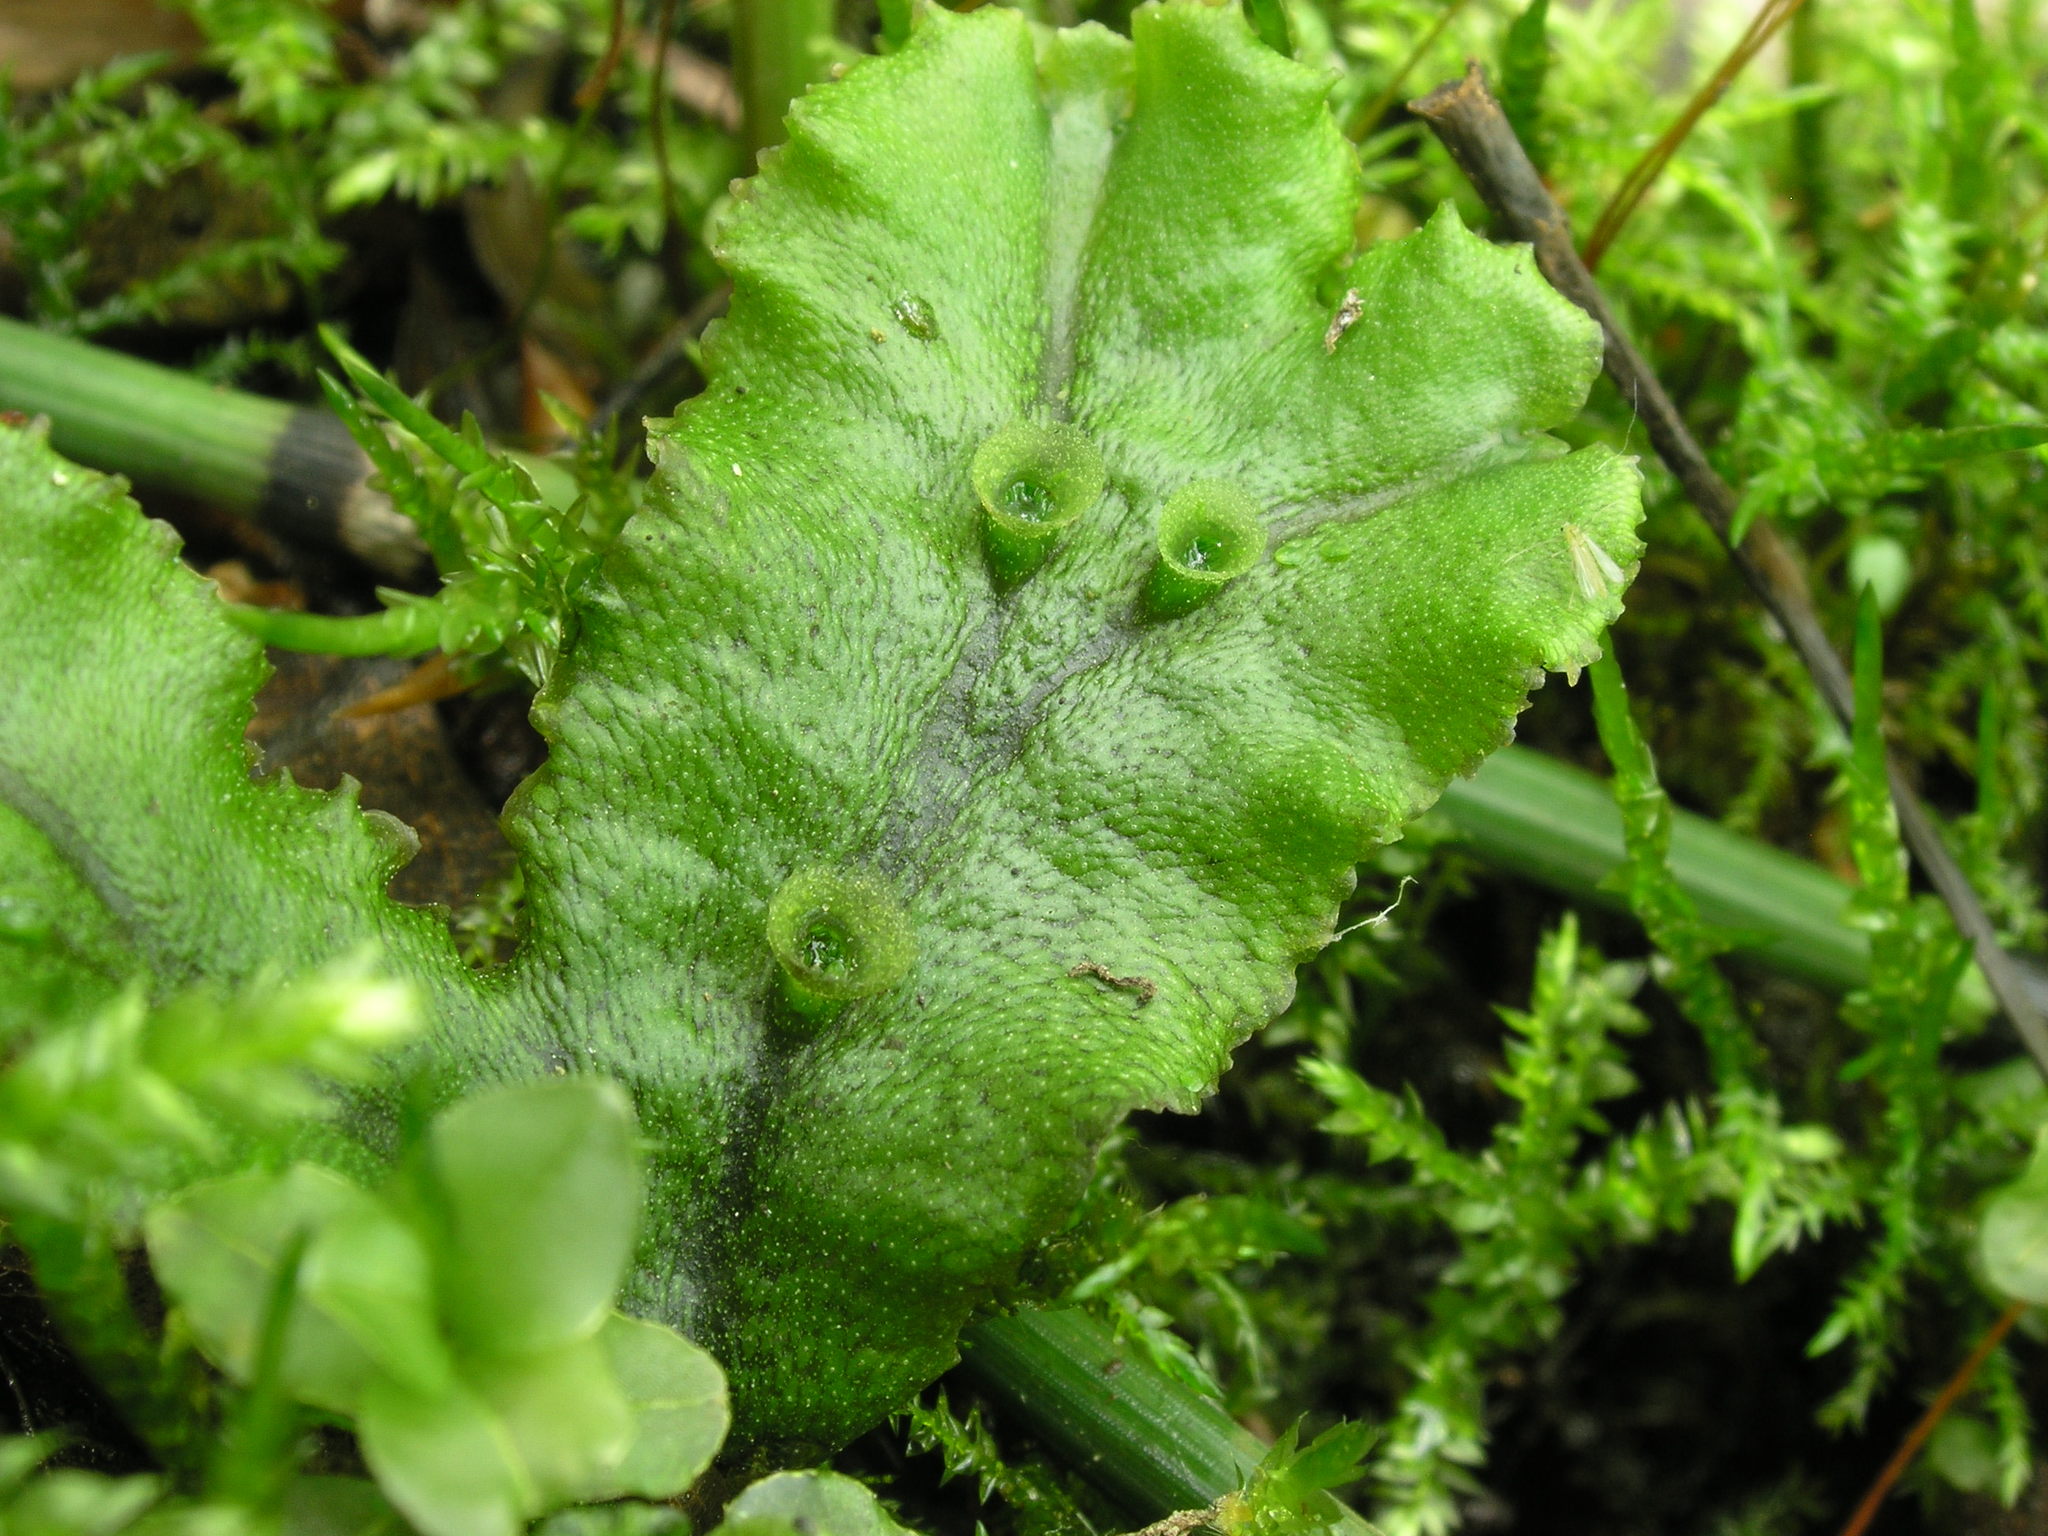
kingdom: Plantae
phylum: Marchantiophyta
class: Marchantiopsida
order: Marchantiales
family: Marchantiaceae
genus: Marchantia
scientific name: Marchantia polymorpha
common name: Common liverwort
